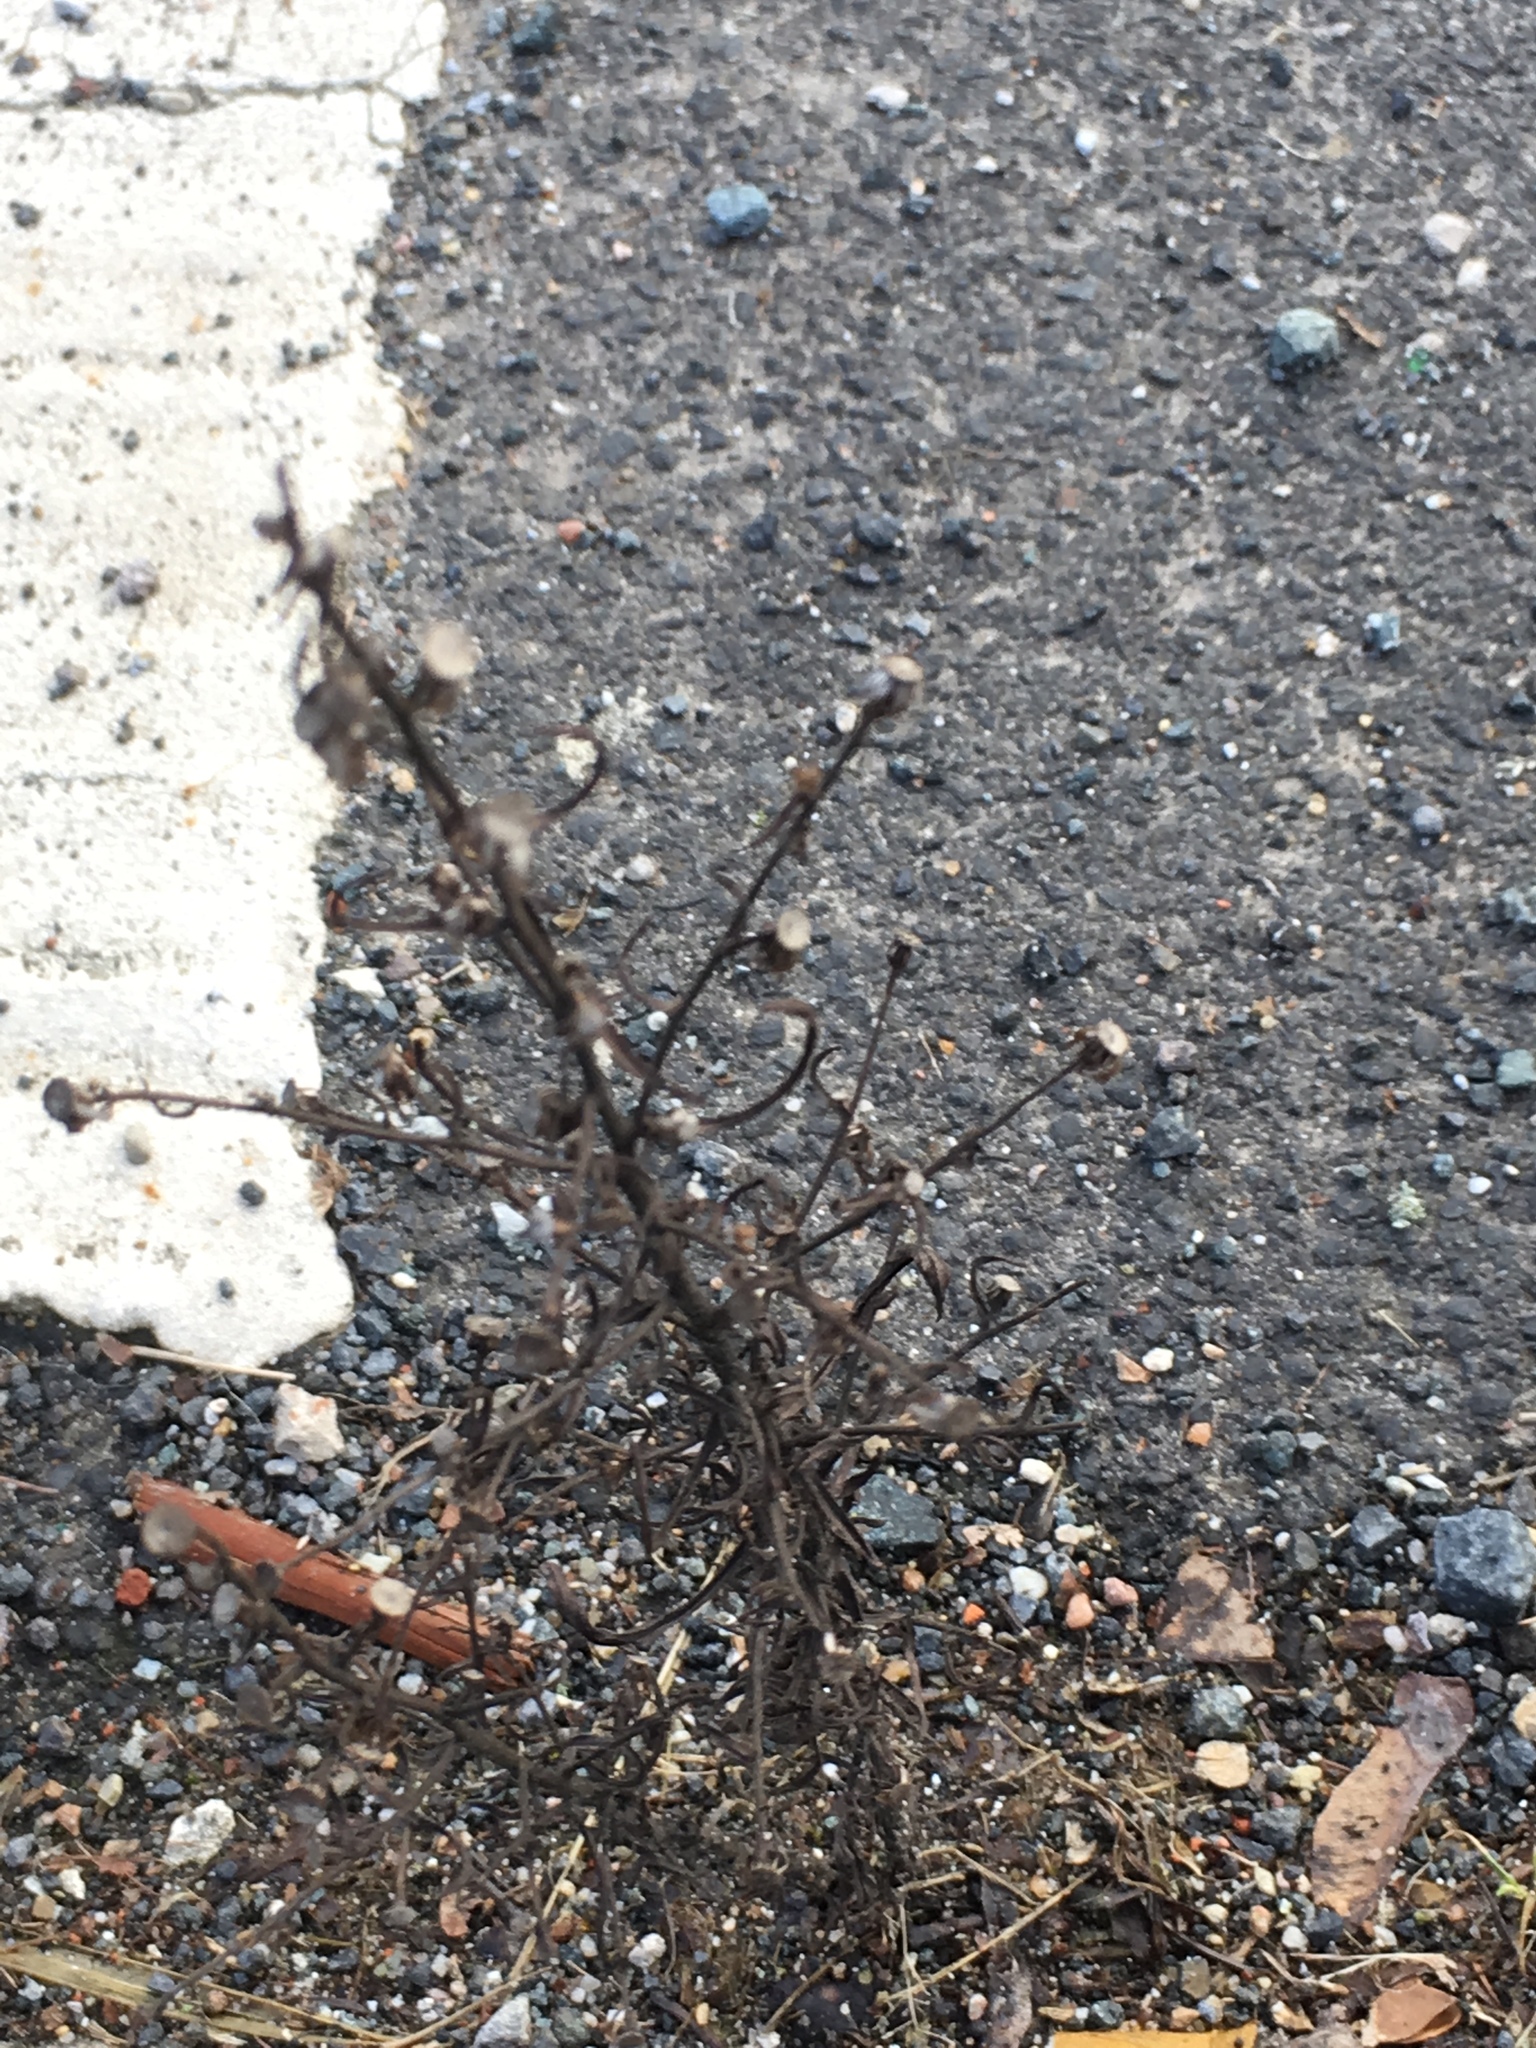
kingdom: Plantae
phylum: Tracheophyta
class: Magnoliopsida
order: Asterales
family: Asteraceae
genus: Dittrichia
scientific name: Dittrichia graveolens
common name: Stinking fleabane
